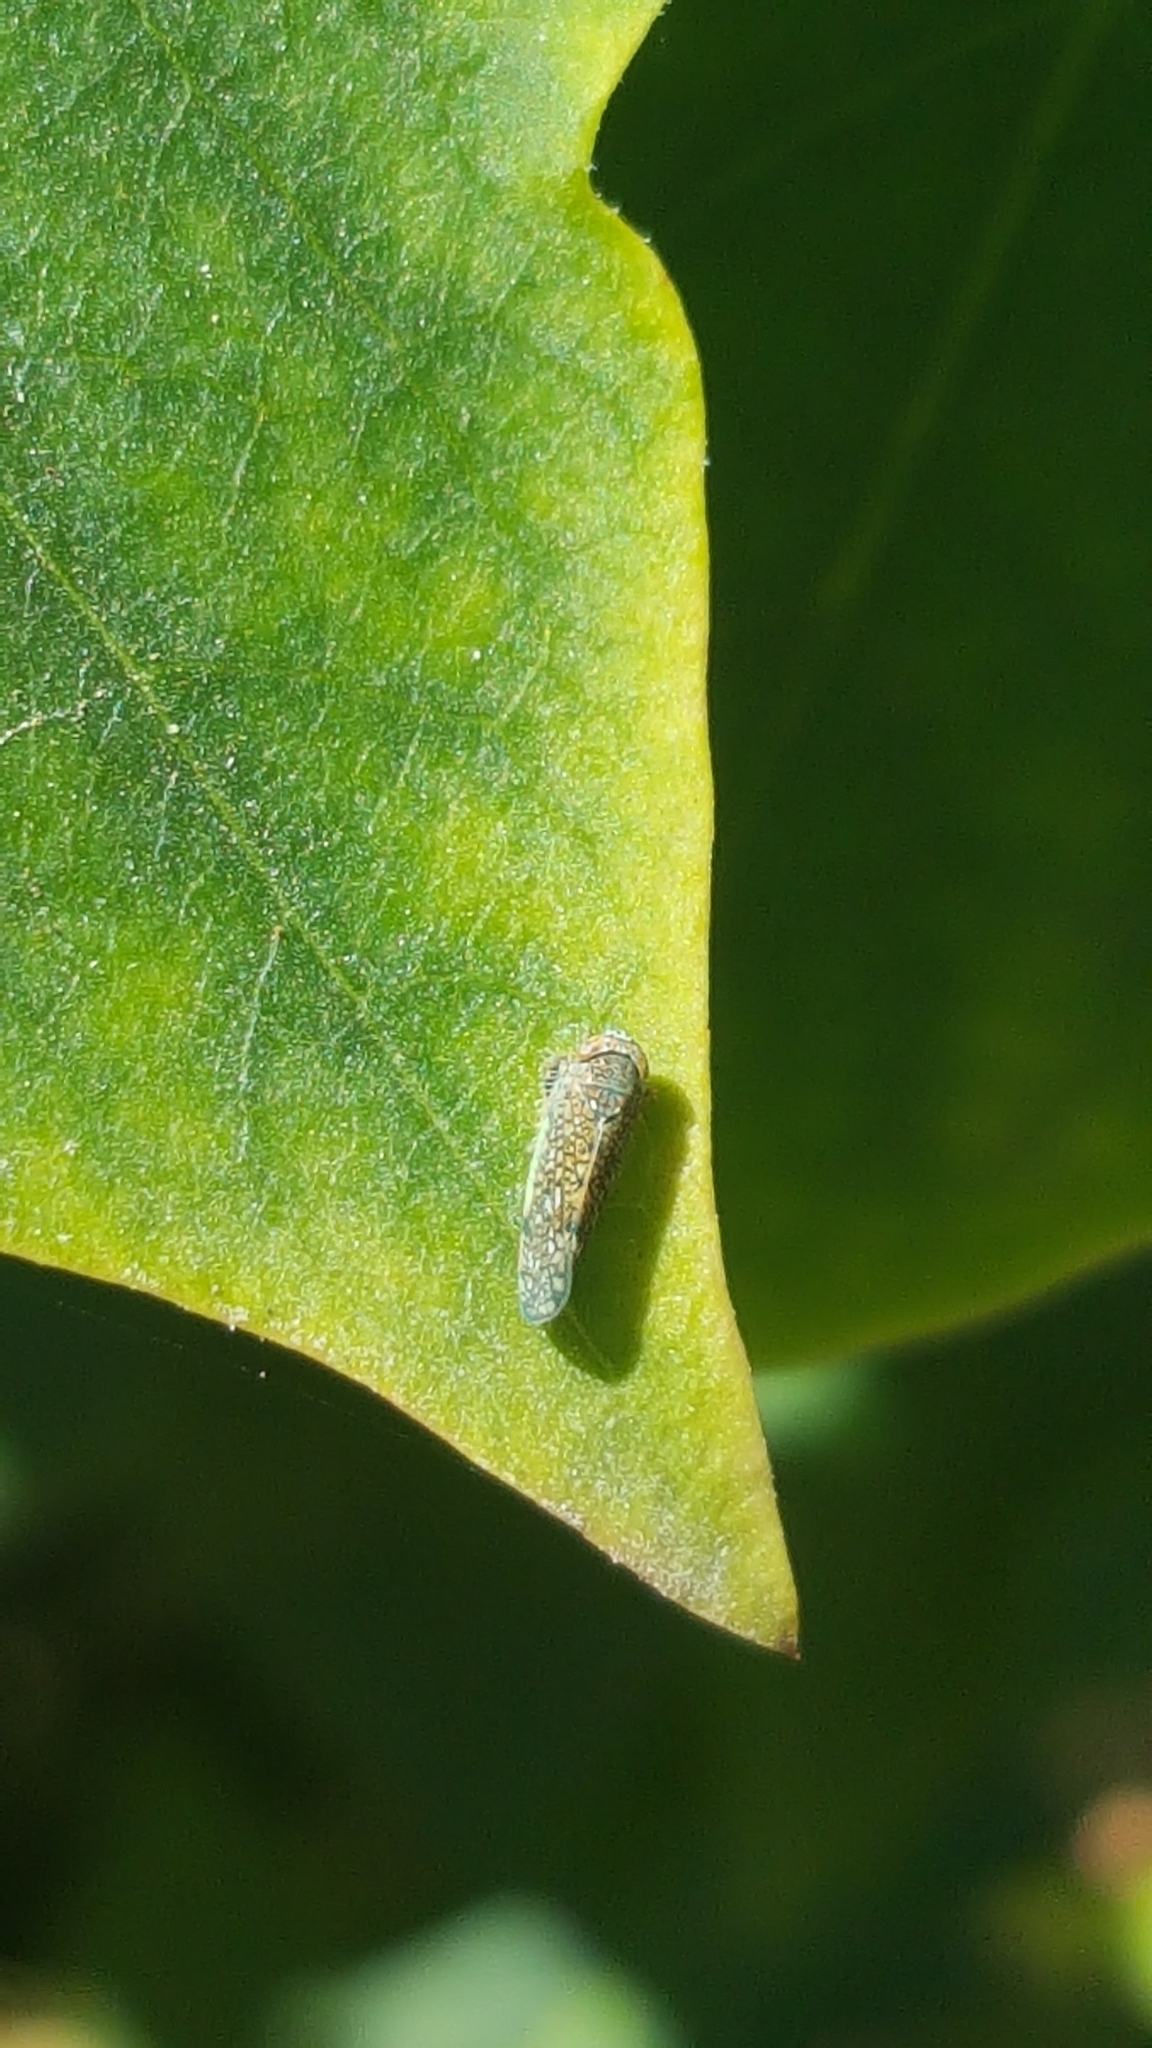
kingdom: Animalia
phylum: Arthropoda
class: Insecta
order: Hemiptera
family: Cicadellidae
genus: Orientus
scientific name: Orientus ishidae
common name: Japanese leafhopper
